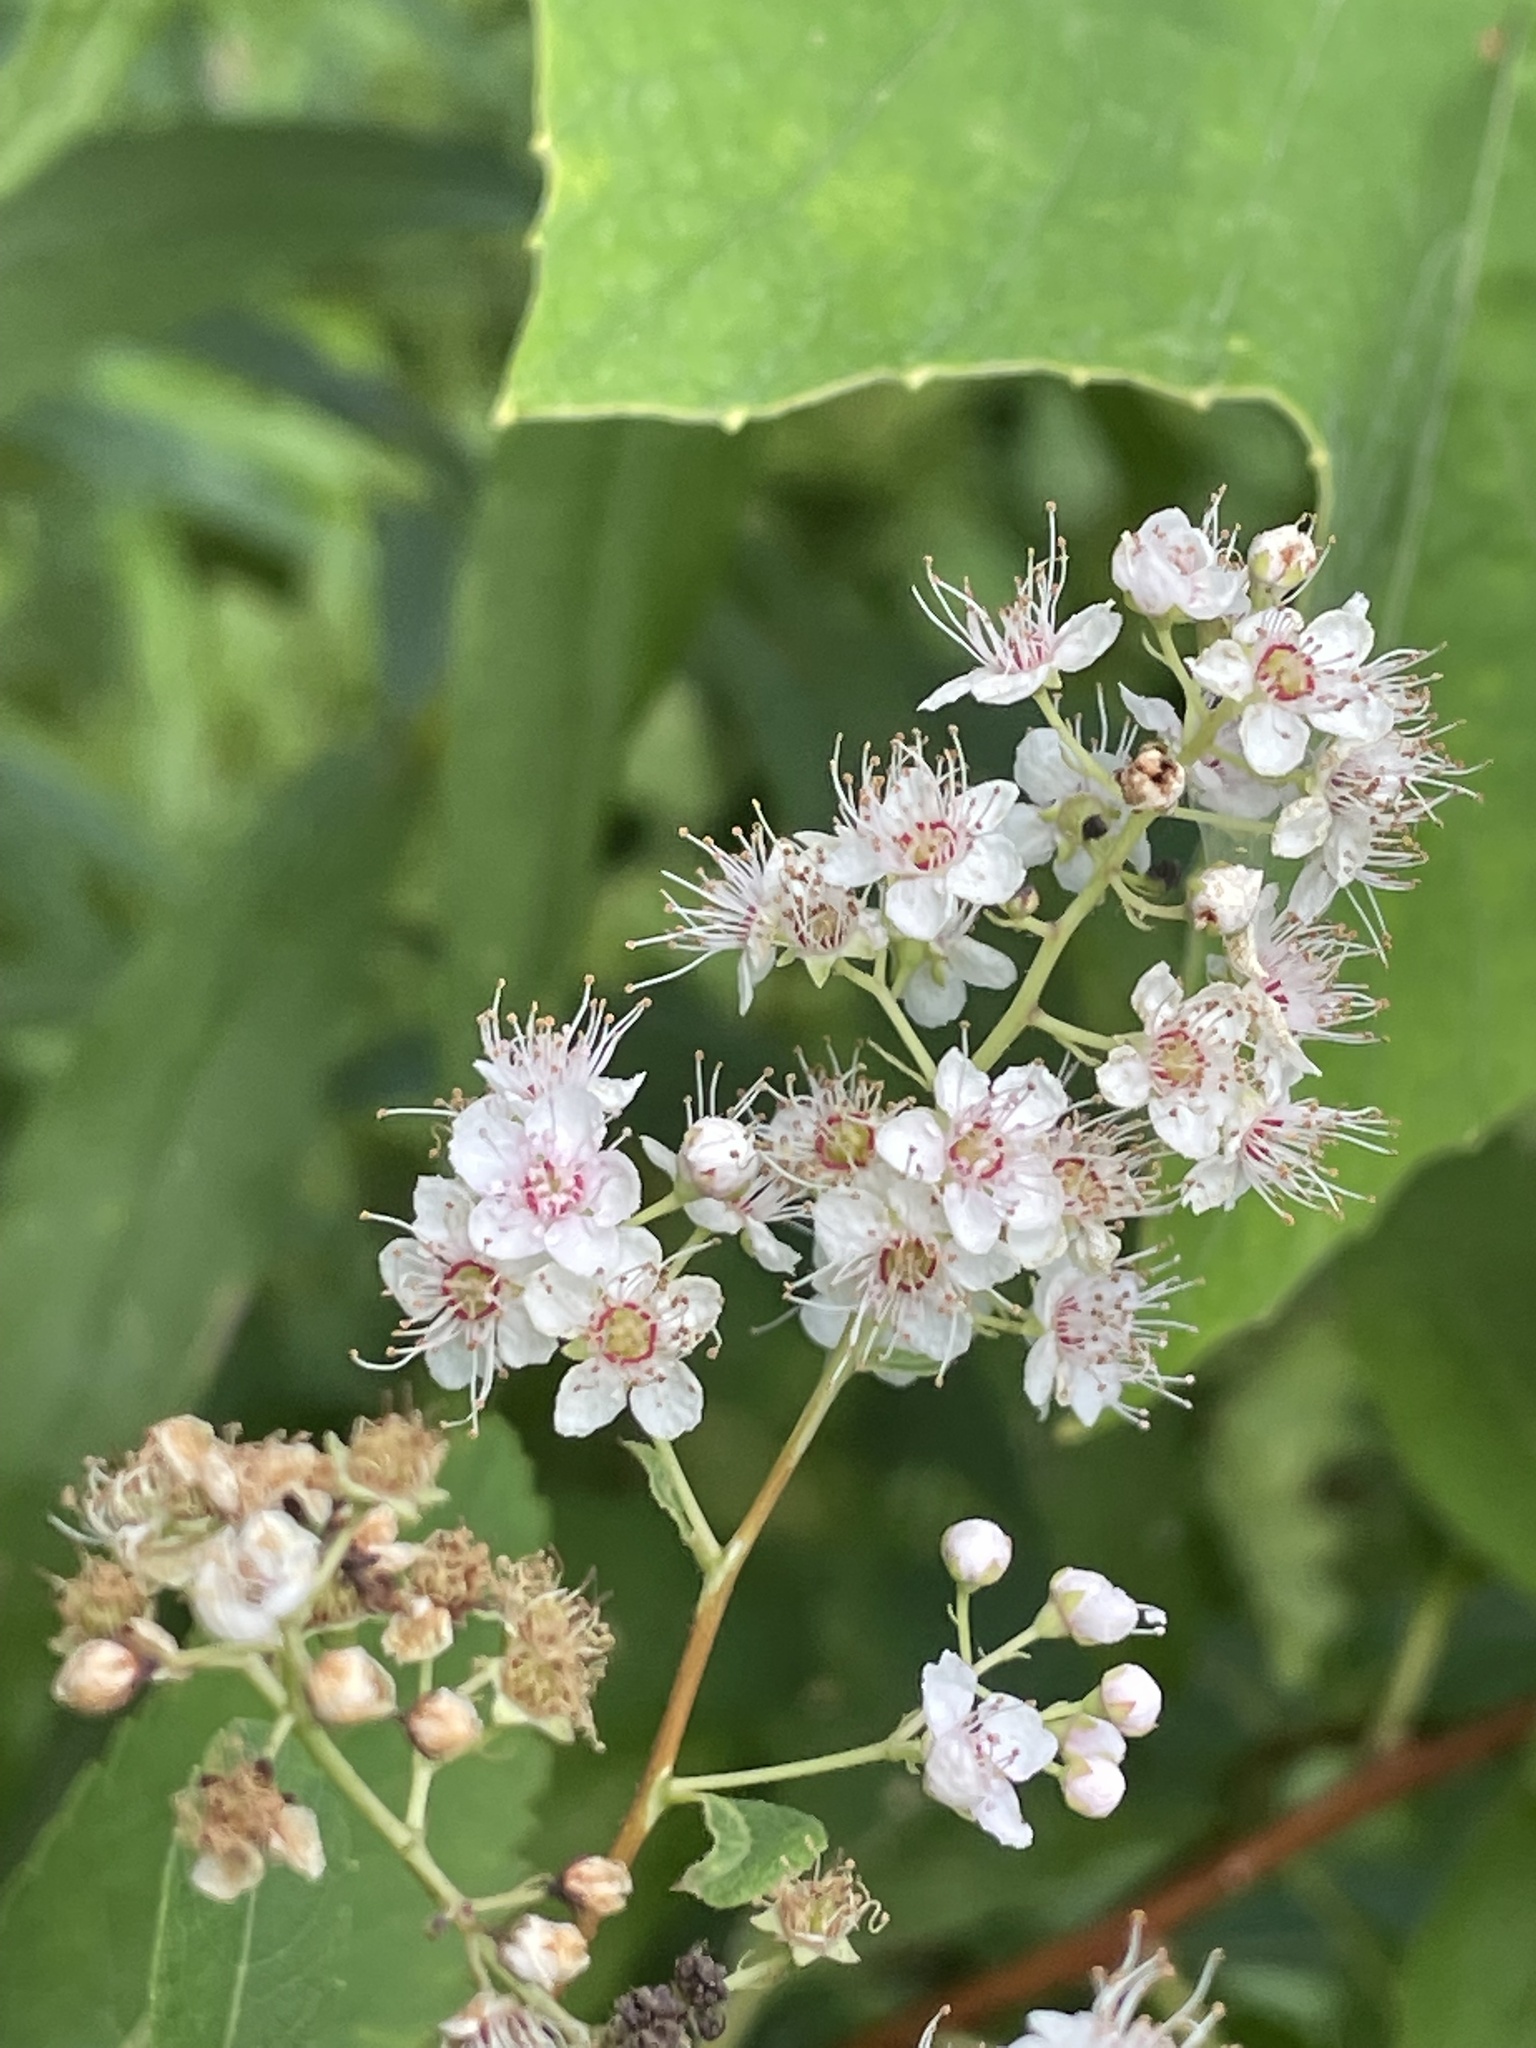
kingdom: Plantae
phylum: Tracheophyta
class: Magnoliopsida
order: Rosales
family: Rosaceae
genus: Spiraea
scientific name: Spiraea alba
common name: Pale bridewort
